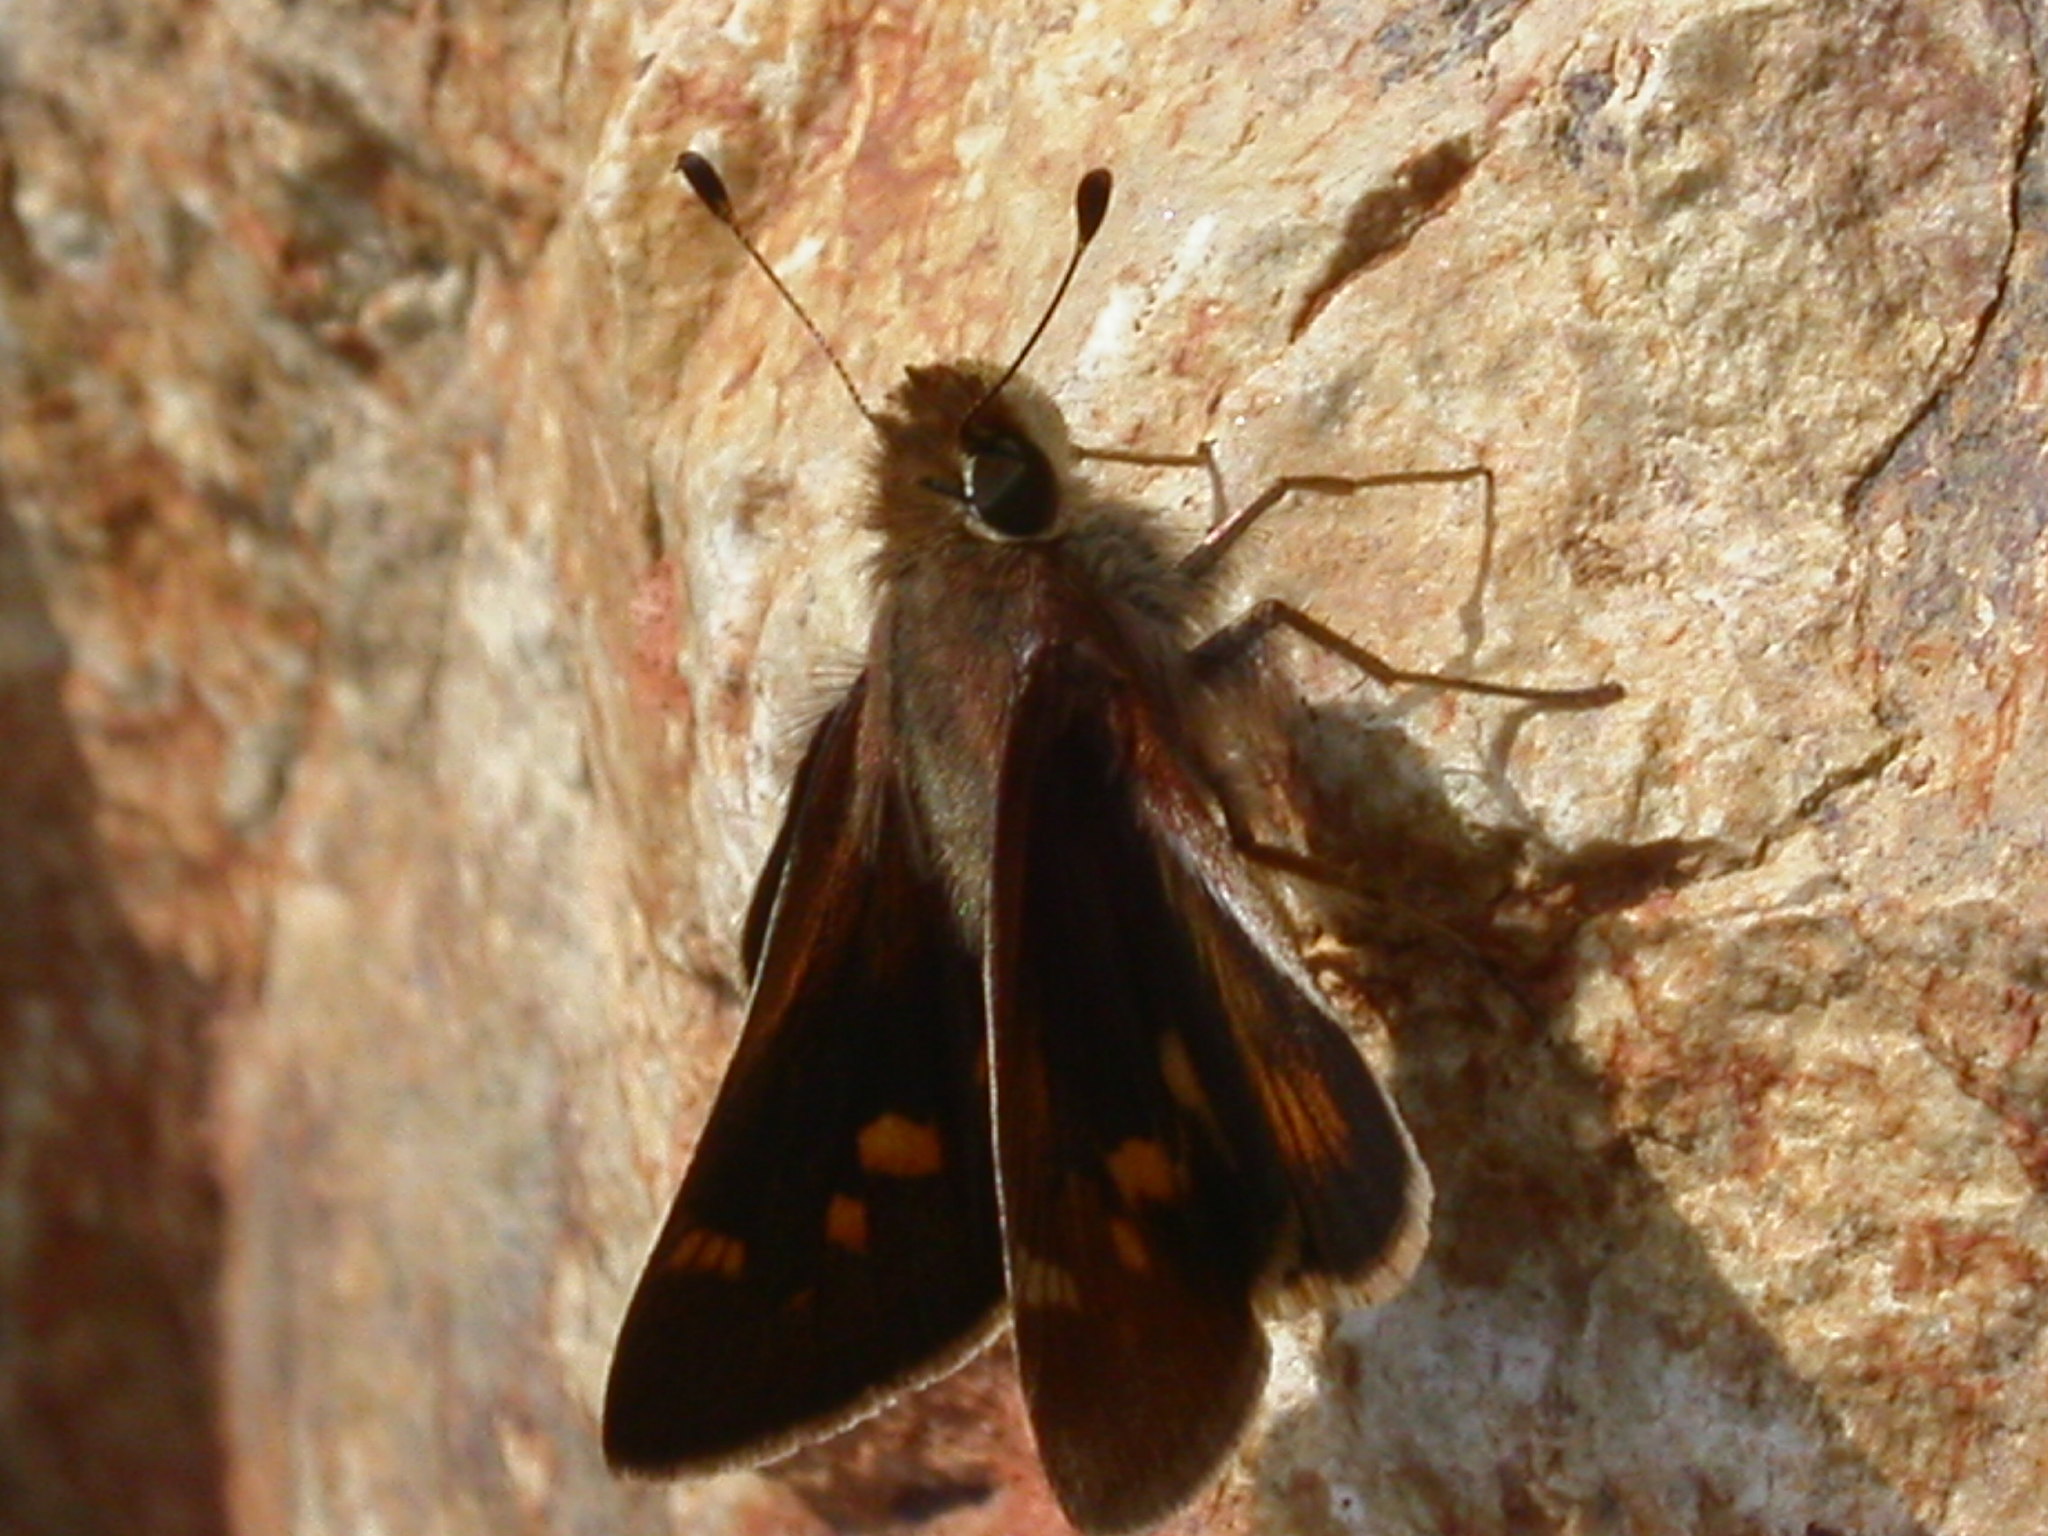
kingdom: Animalia
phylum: Arthropoda
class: Insecta
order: Lepidoptera
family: Hesperiidae
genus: Lon
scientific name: Lon melane
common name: Umber skipper
